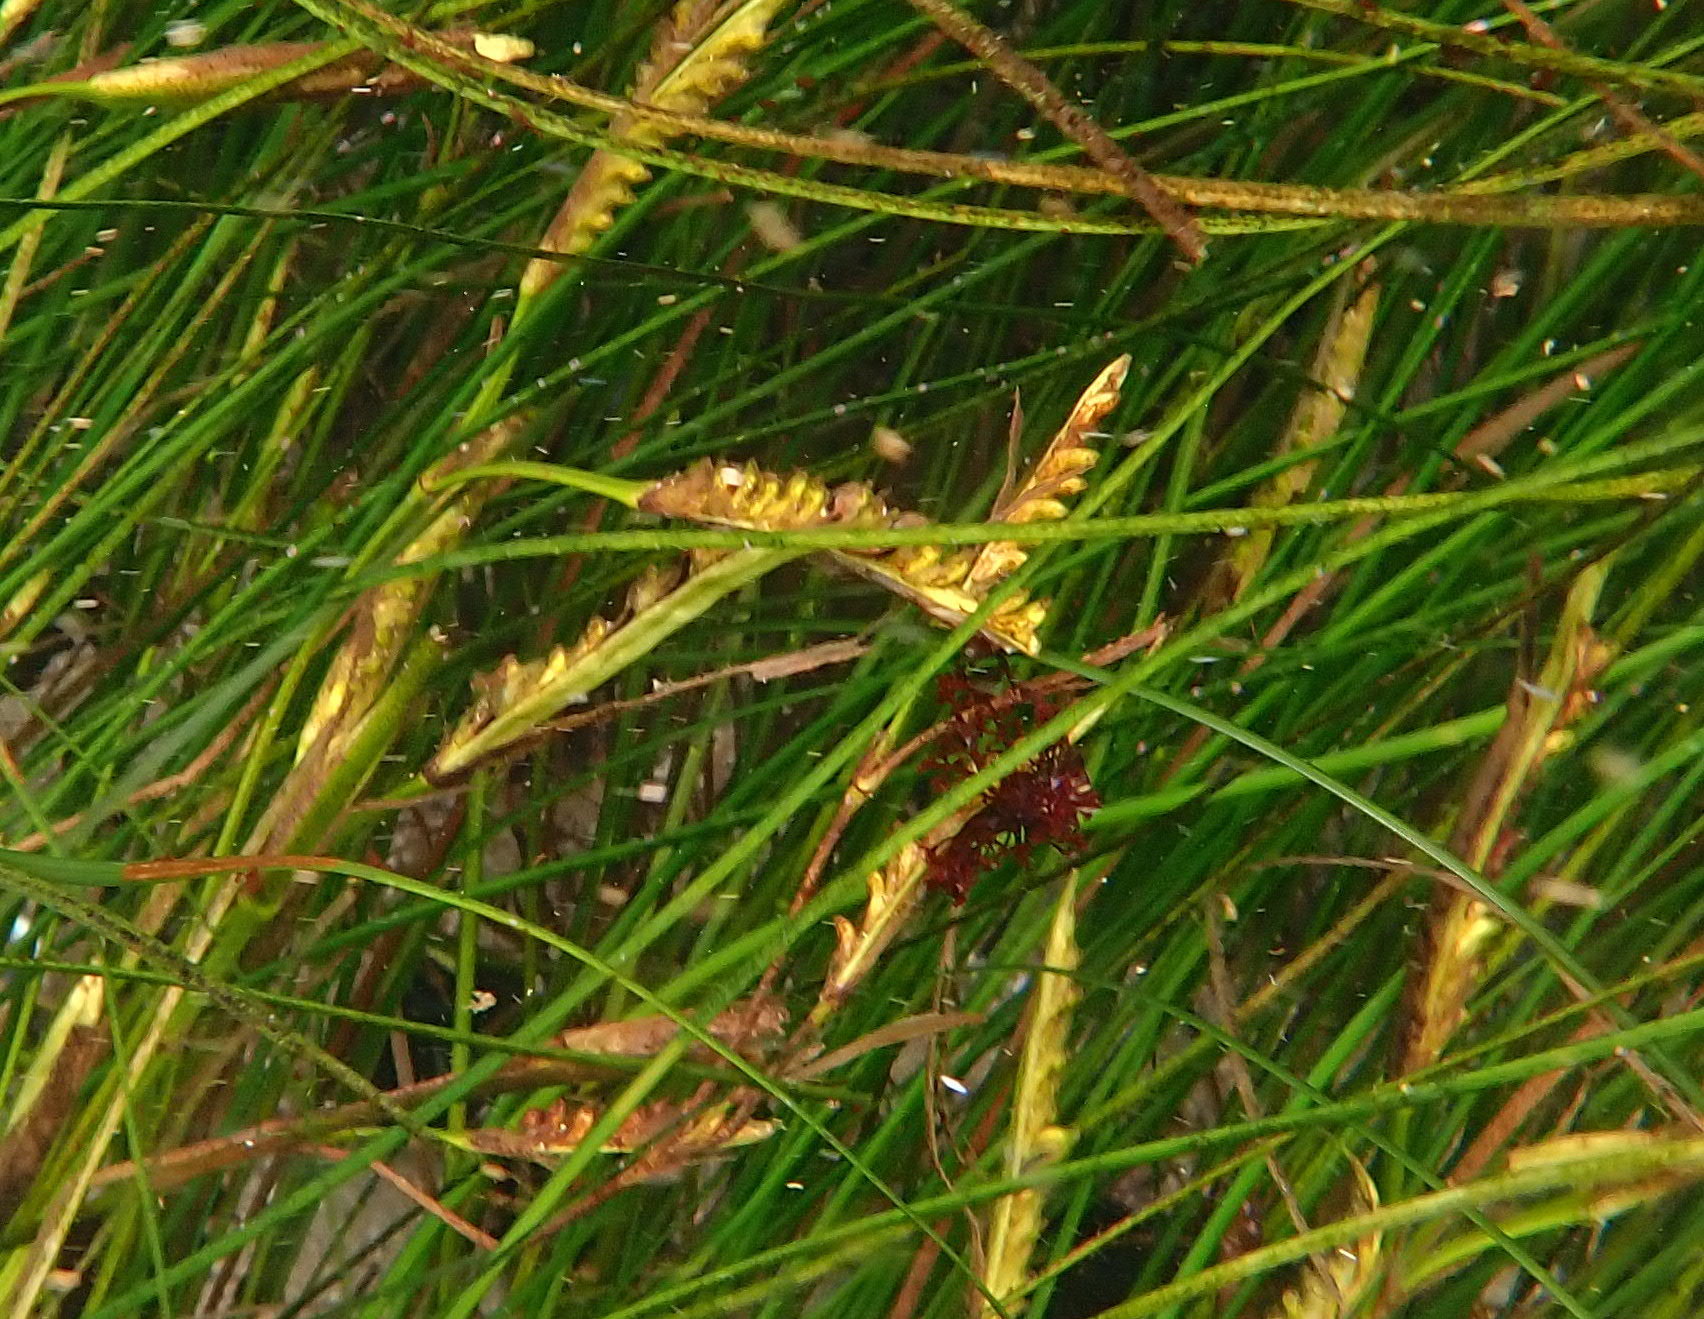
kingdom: Plantae
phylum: Tracheophyta
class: Liliopsida
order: Alismatales
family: Zosteraceae
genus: Phyllospadix
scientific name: Phyllospadix torreyi
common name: Surfgrass
